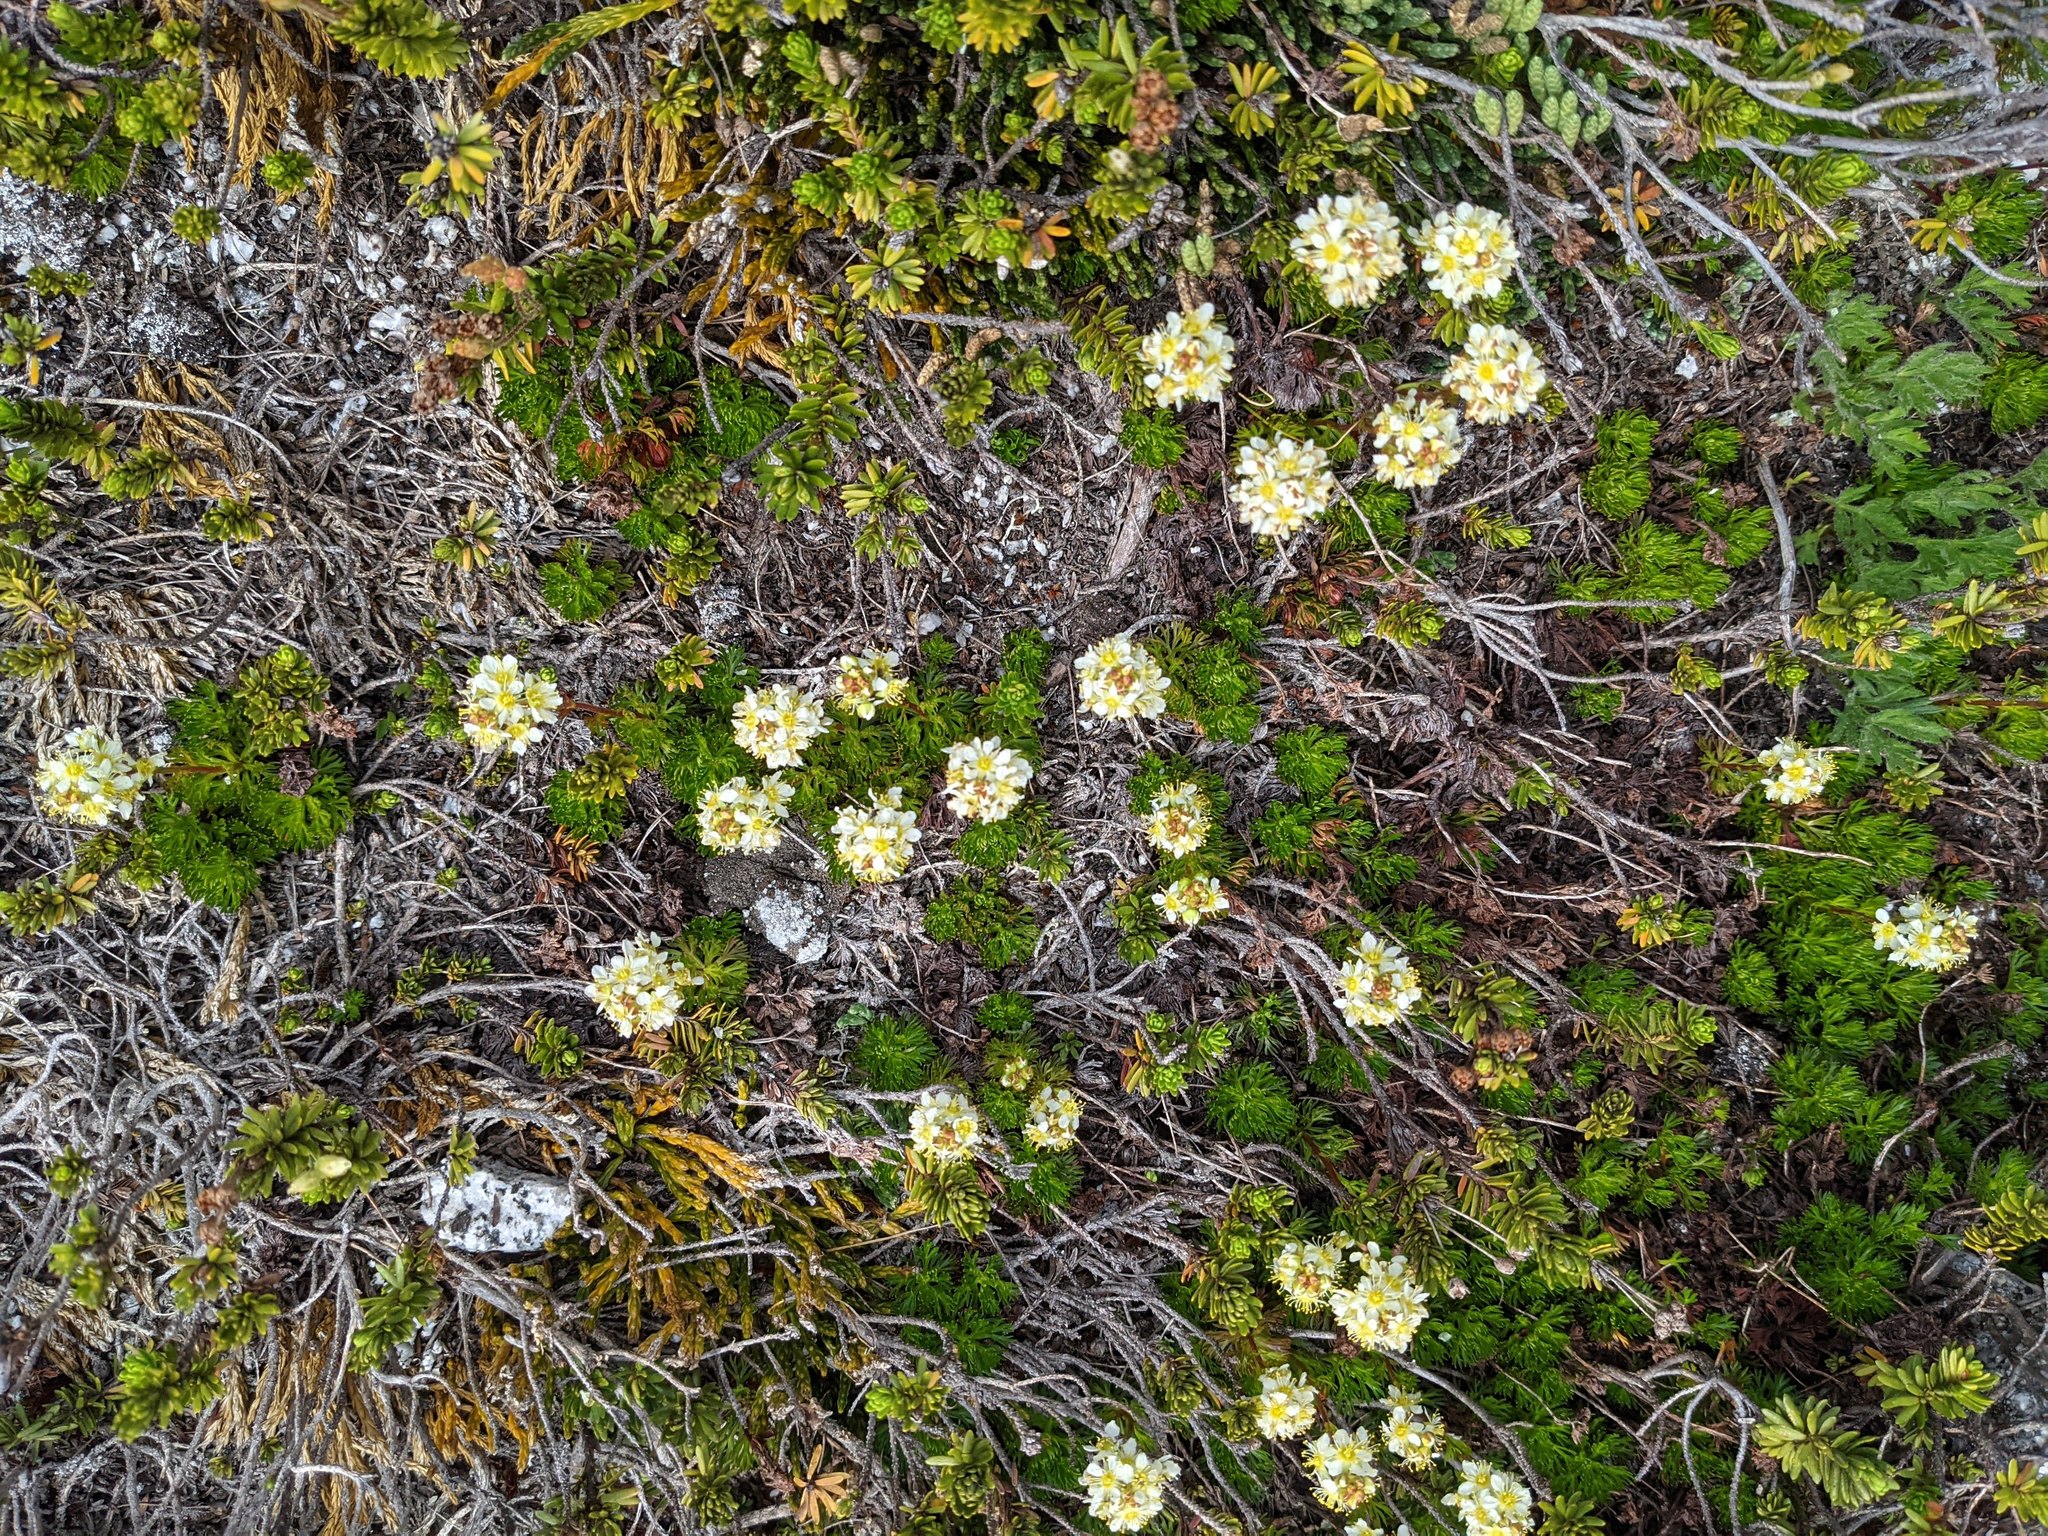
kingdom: Plantae
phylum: Tracheophyta
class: Magnoliopsida
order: Rosales
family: Rosaceae
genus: Luetkea
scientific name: Luetkea pectinata
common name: Partridgefoot
